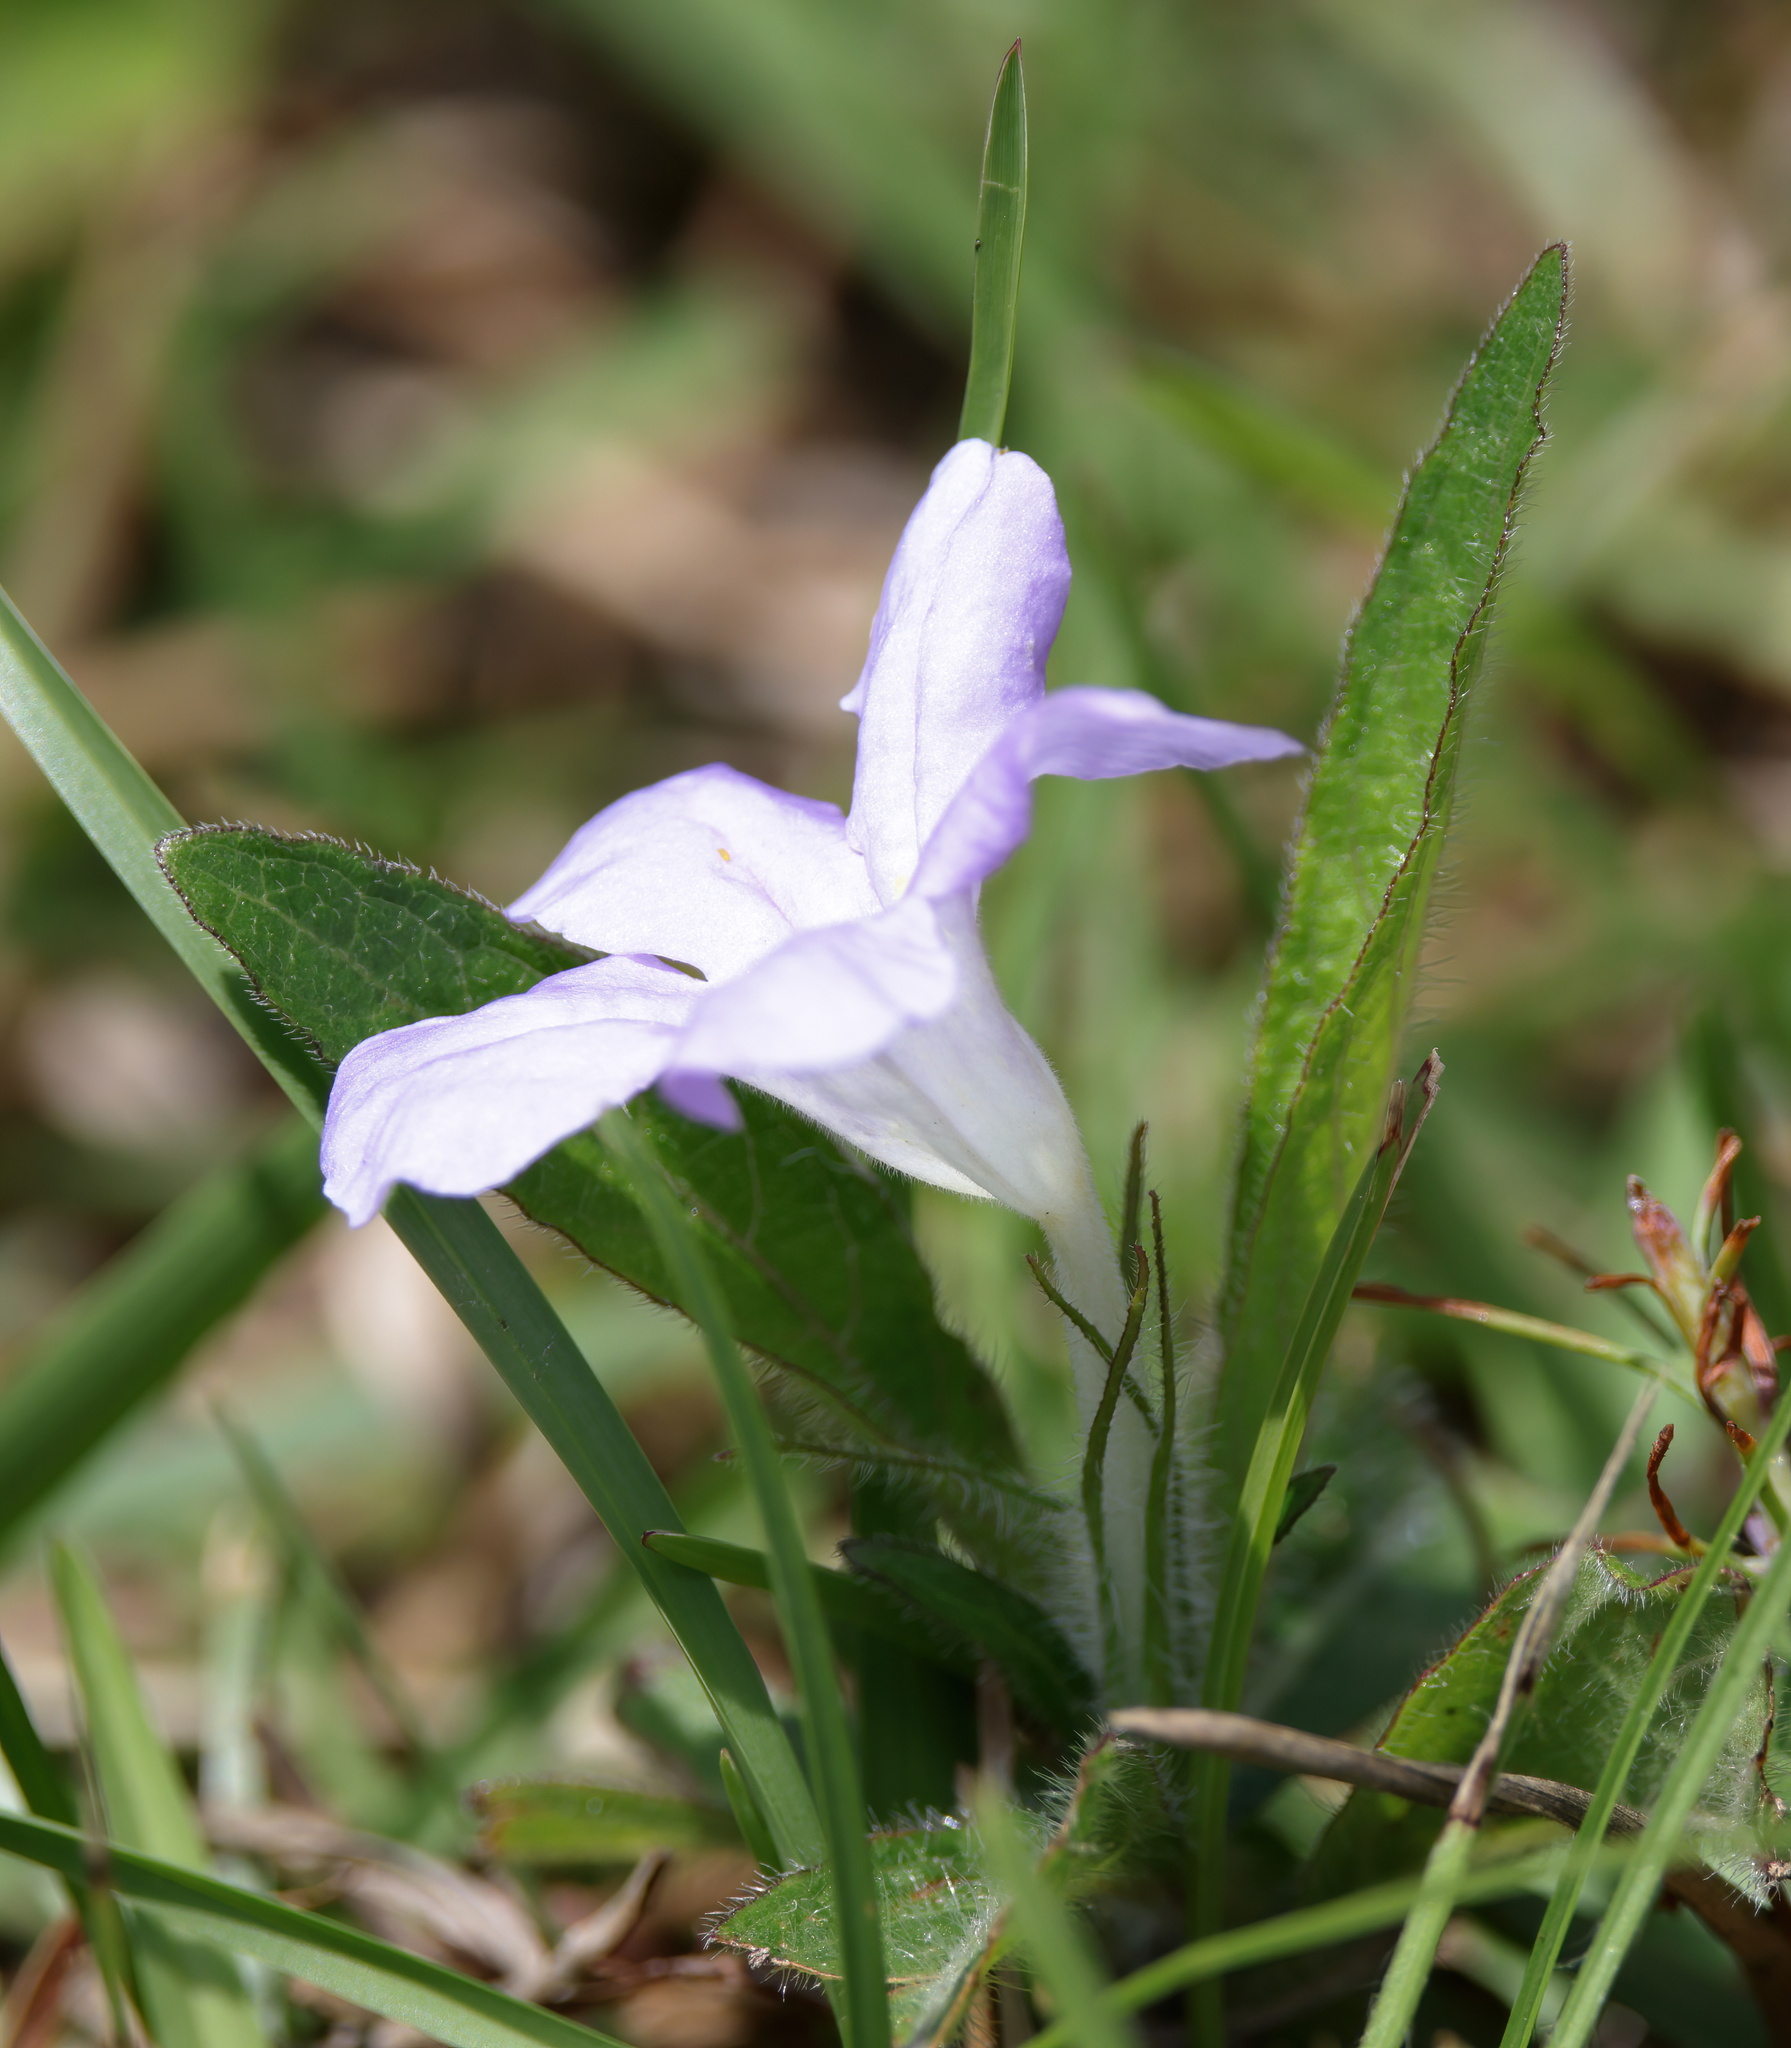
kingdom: Plantae
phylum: Tracheophyta
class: Magnoliopsida
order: Lamiales
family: Acanthaceae
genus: Ruellia
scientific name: Ruellia caroliniensis
